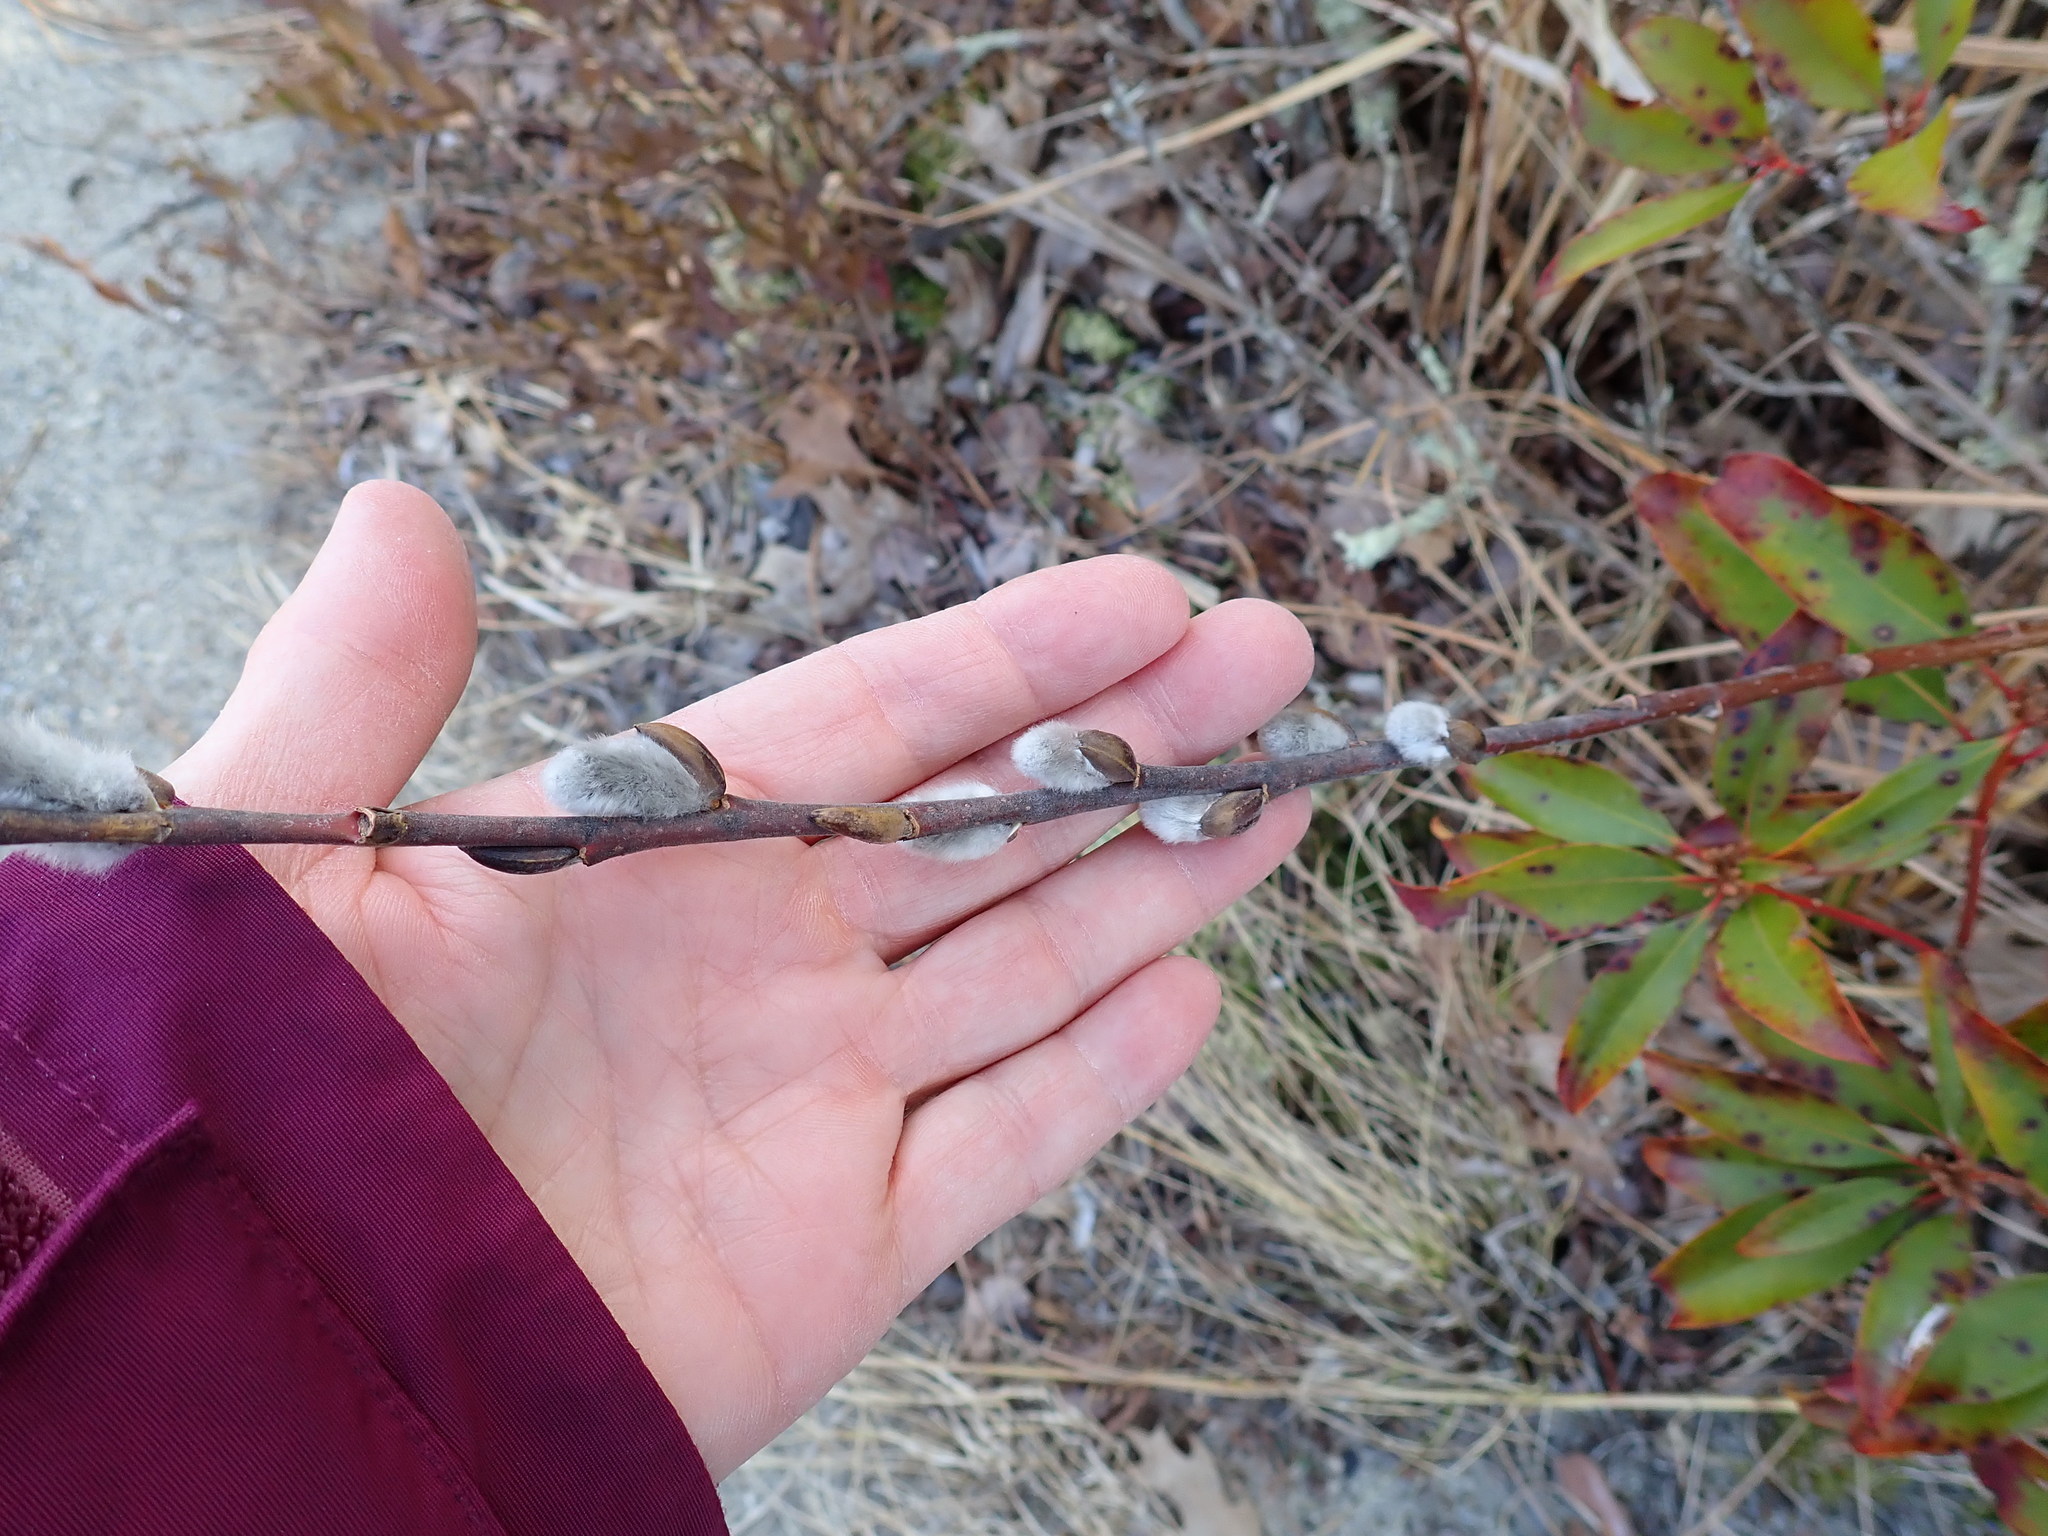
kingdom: Plantae
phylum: Tracheophyta
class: Magnoliopsida
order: Malpighiales
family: Salicaceae
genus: Salix
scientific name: Salix discolor
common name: Glaucous willow
